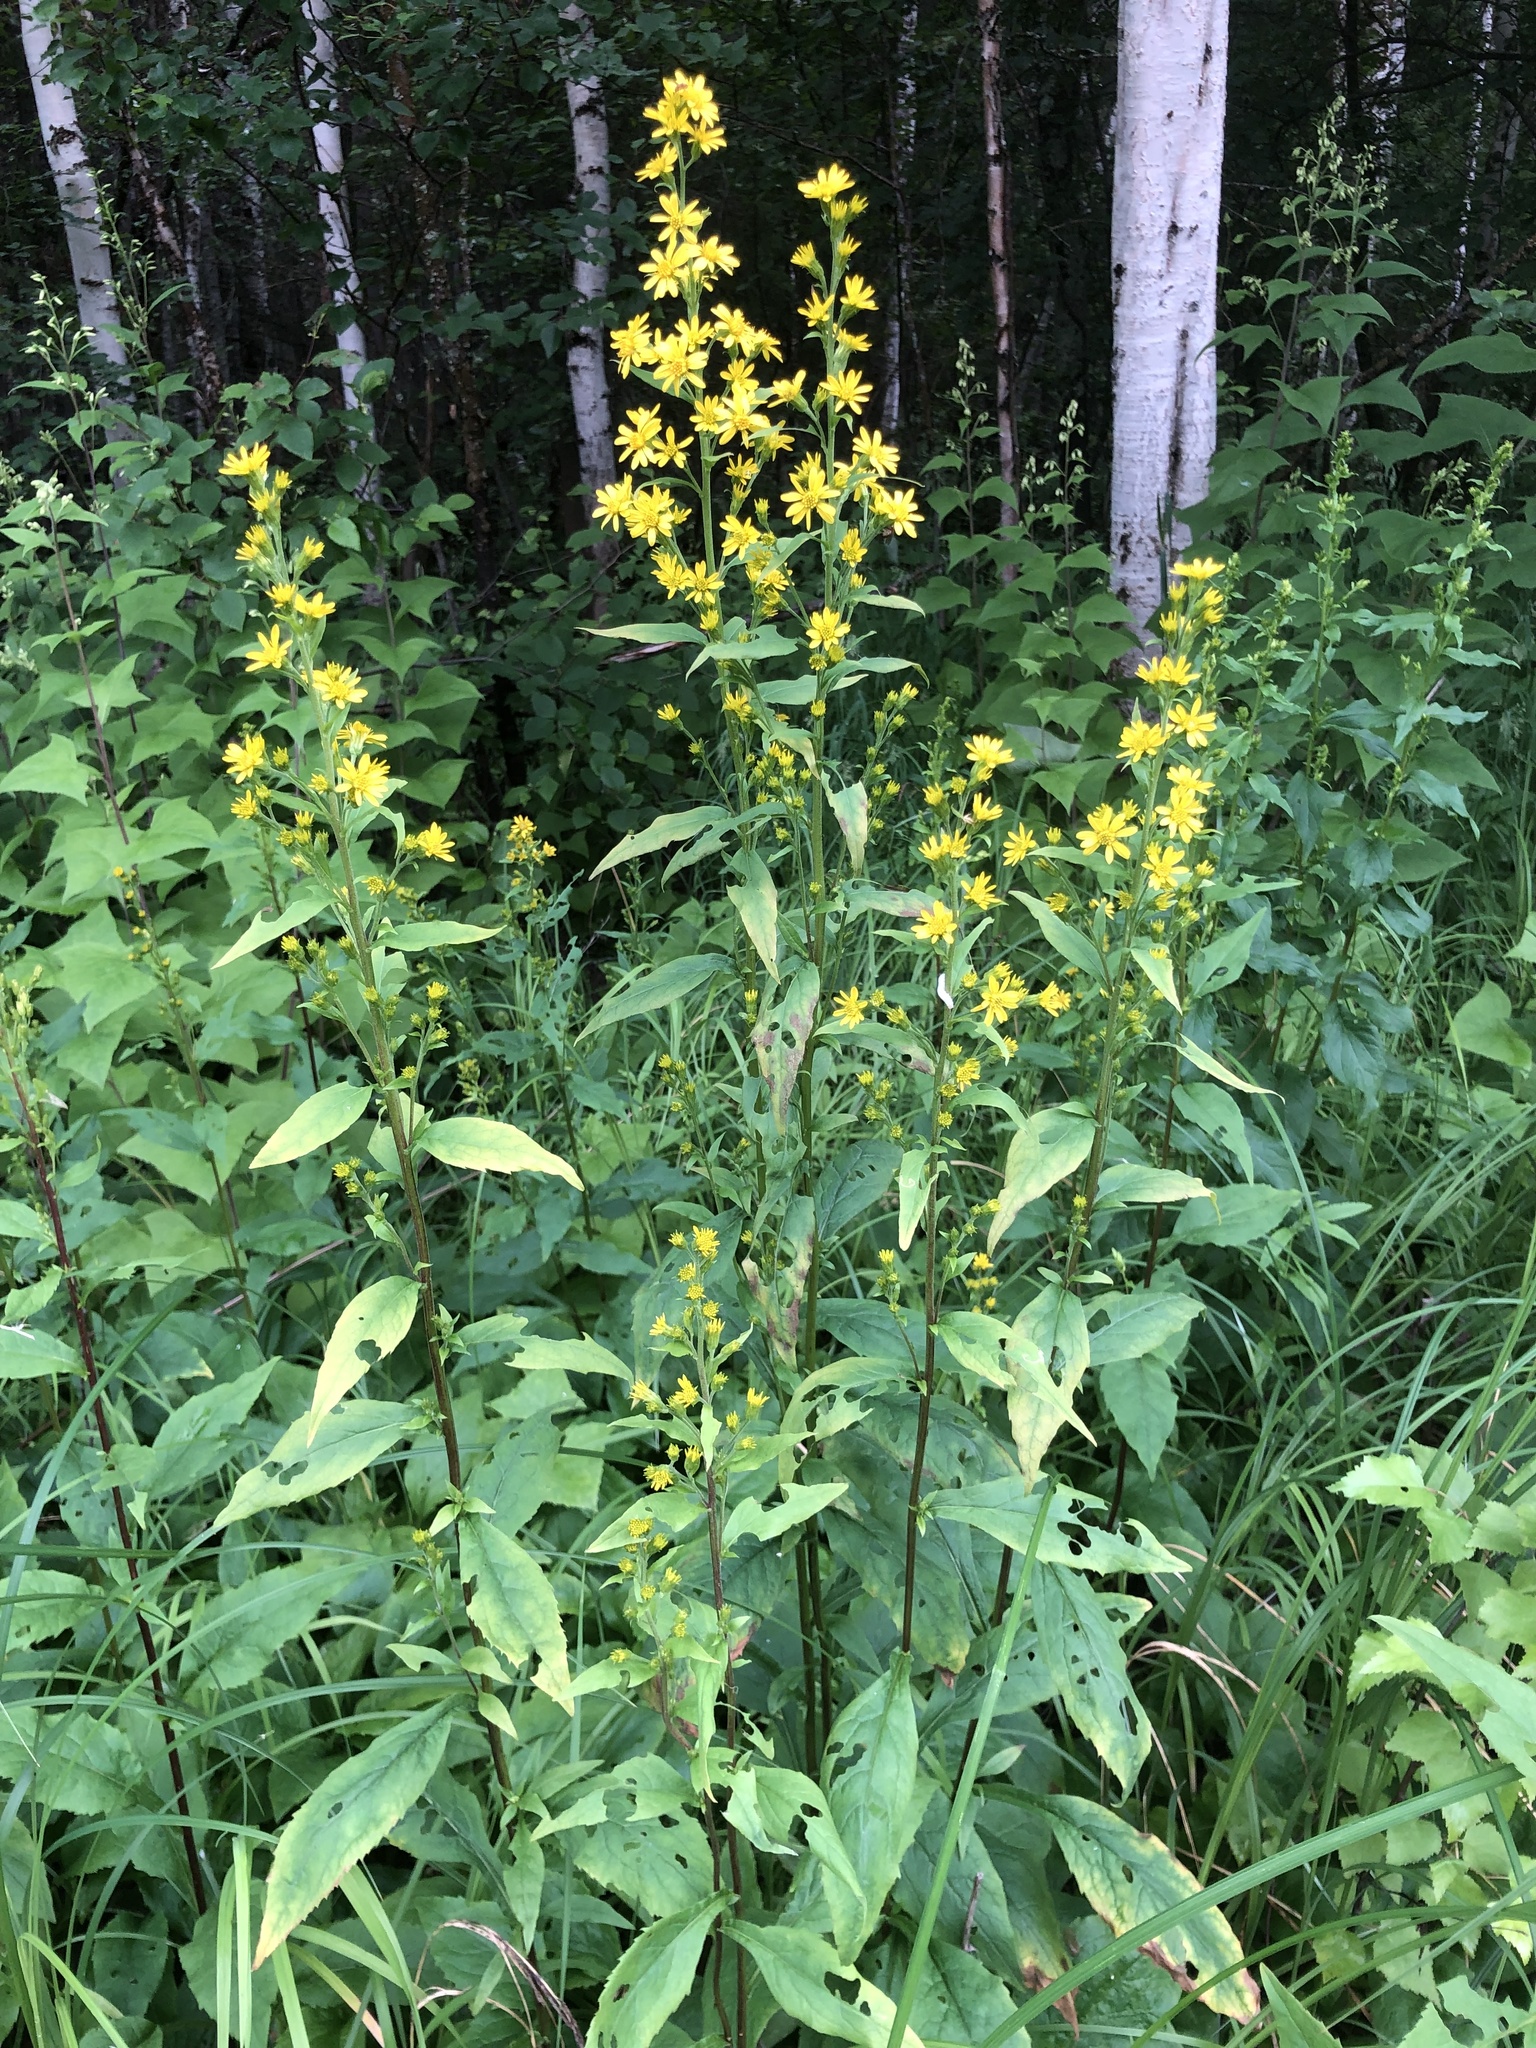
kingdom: Plantae
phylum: Tracheophyta
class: Magnoliopsida
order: Asterales
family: Asteraceae
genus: Solidago
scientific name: Solidago virgaurea
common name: Goldenrod
